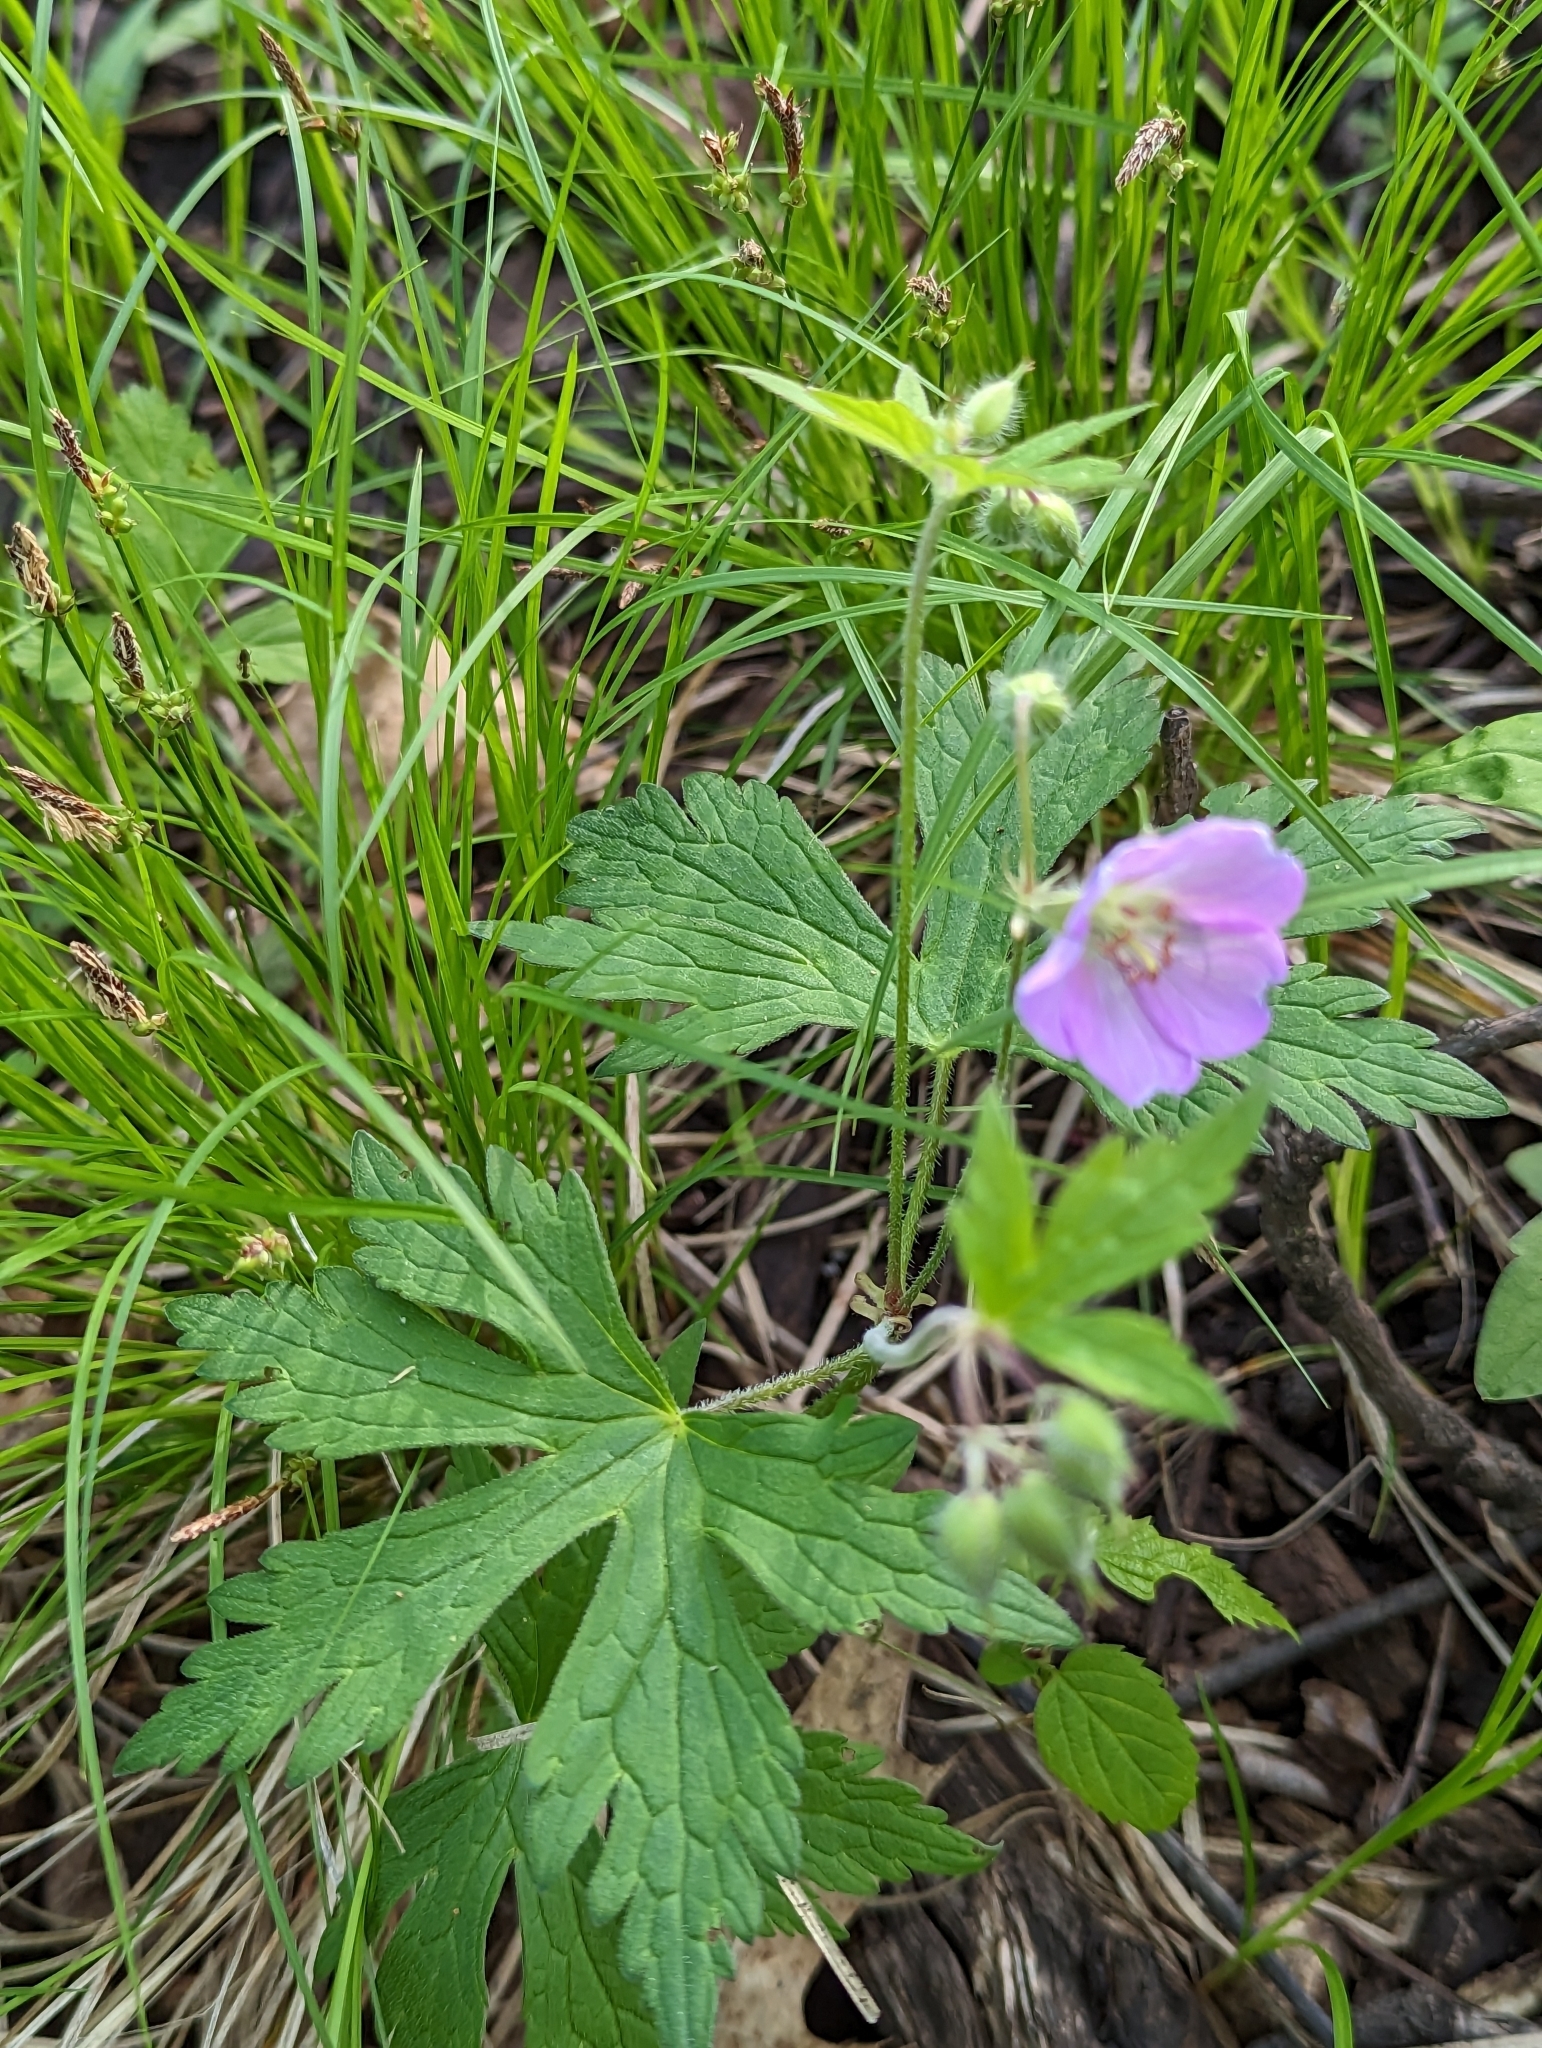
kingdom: Plantae
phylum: Tracheophyta
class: Magnoliopsida
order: Geraniales
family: Geraniaceae
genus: Geranium
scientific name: Geranium maculatum
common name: Spotted geranium
